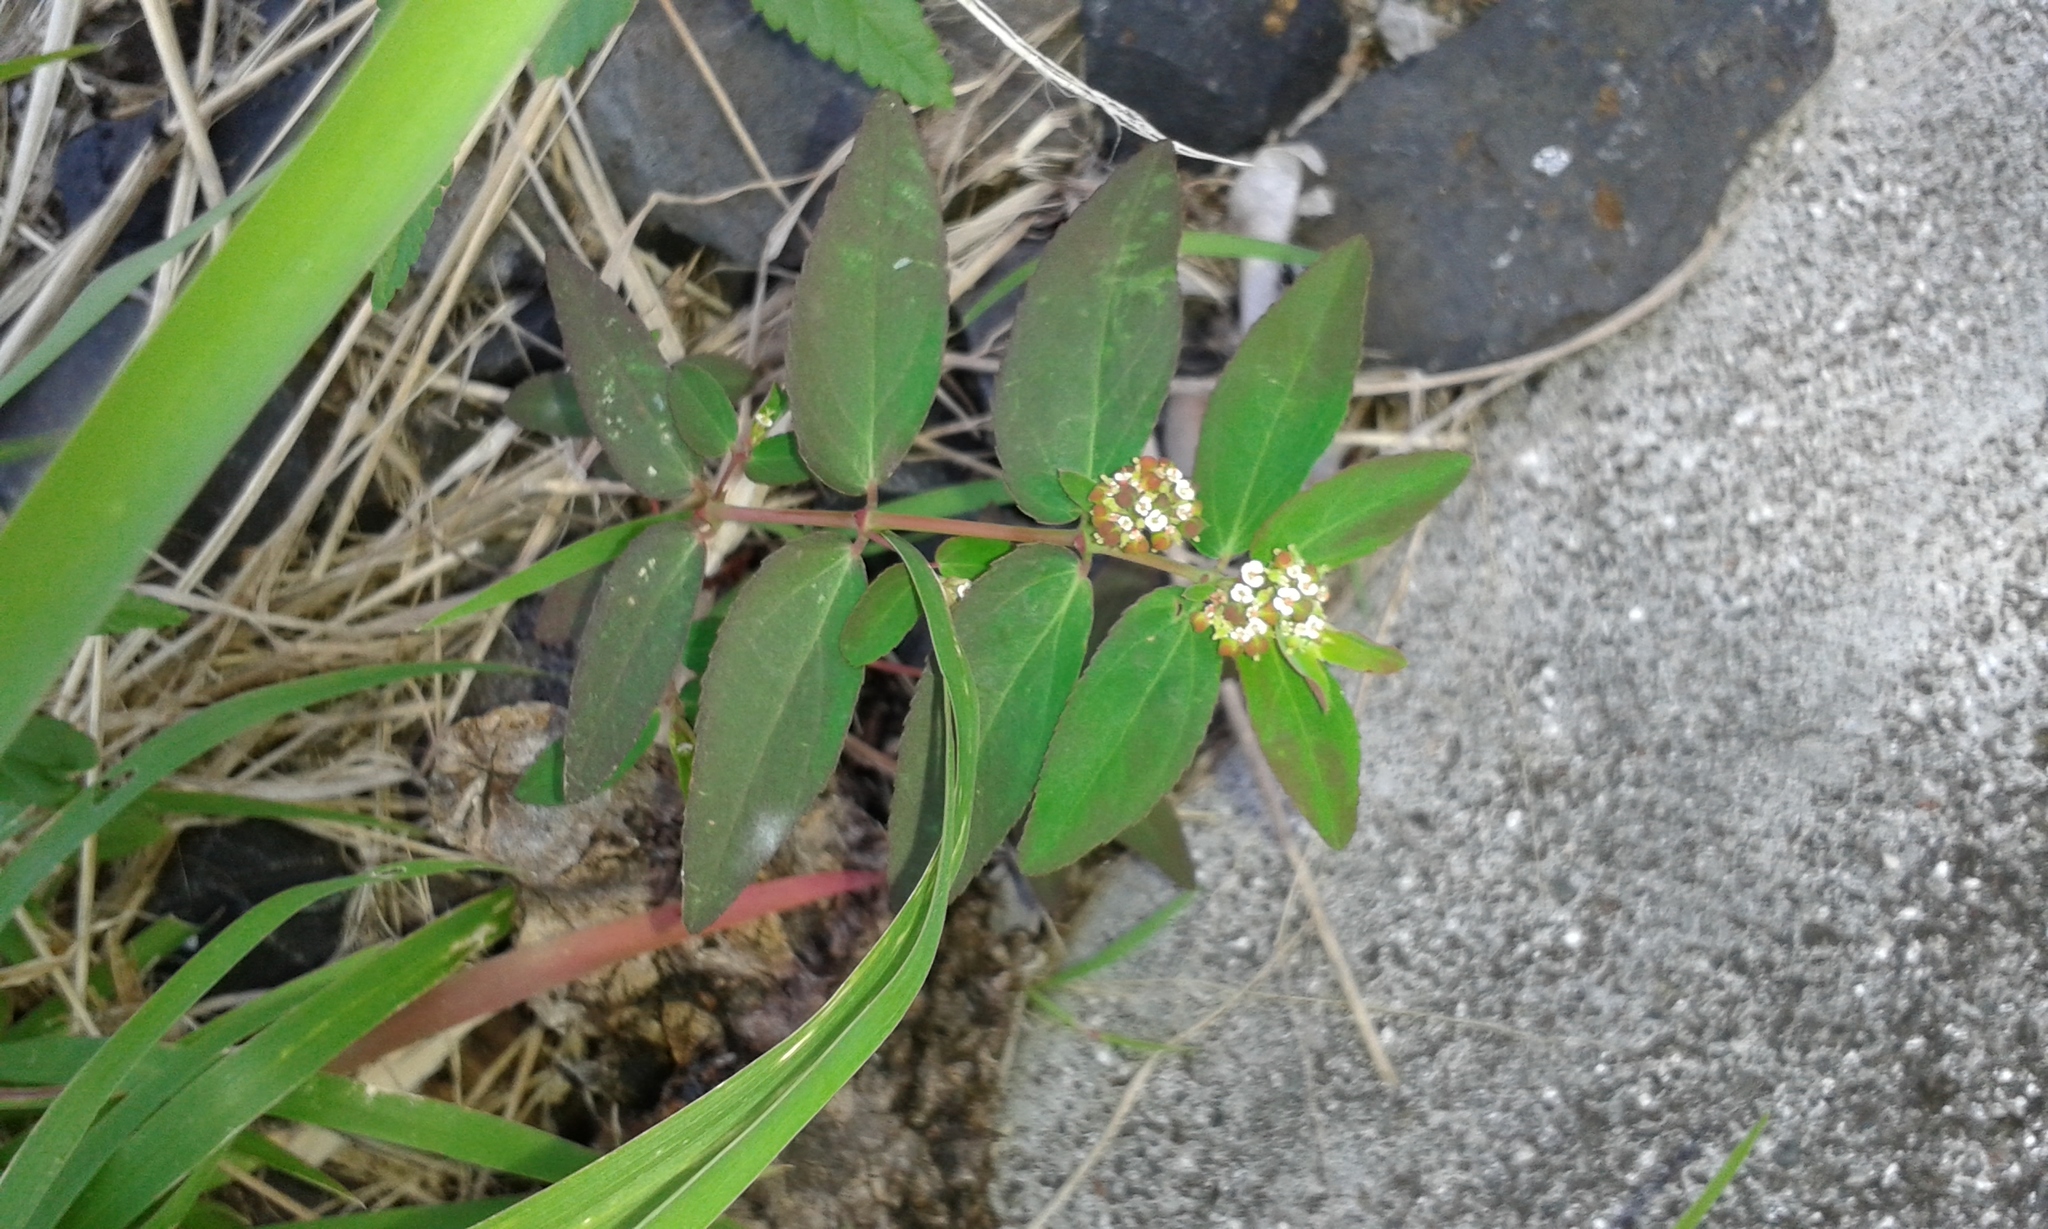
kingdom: Plantae
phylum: Tracheophyta
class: Magnoliopsida
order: Malpighiales
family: Euphorbiaceae
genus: Euphorbia
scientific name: Euphorbia hypericifolia
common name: Graceful sandmat
